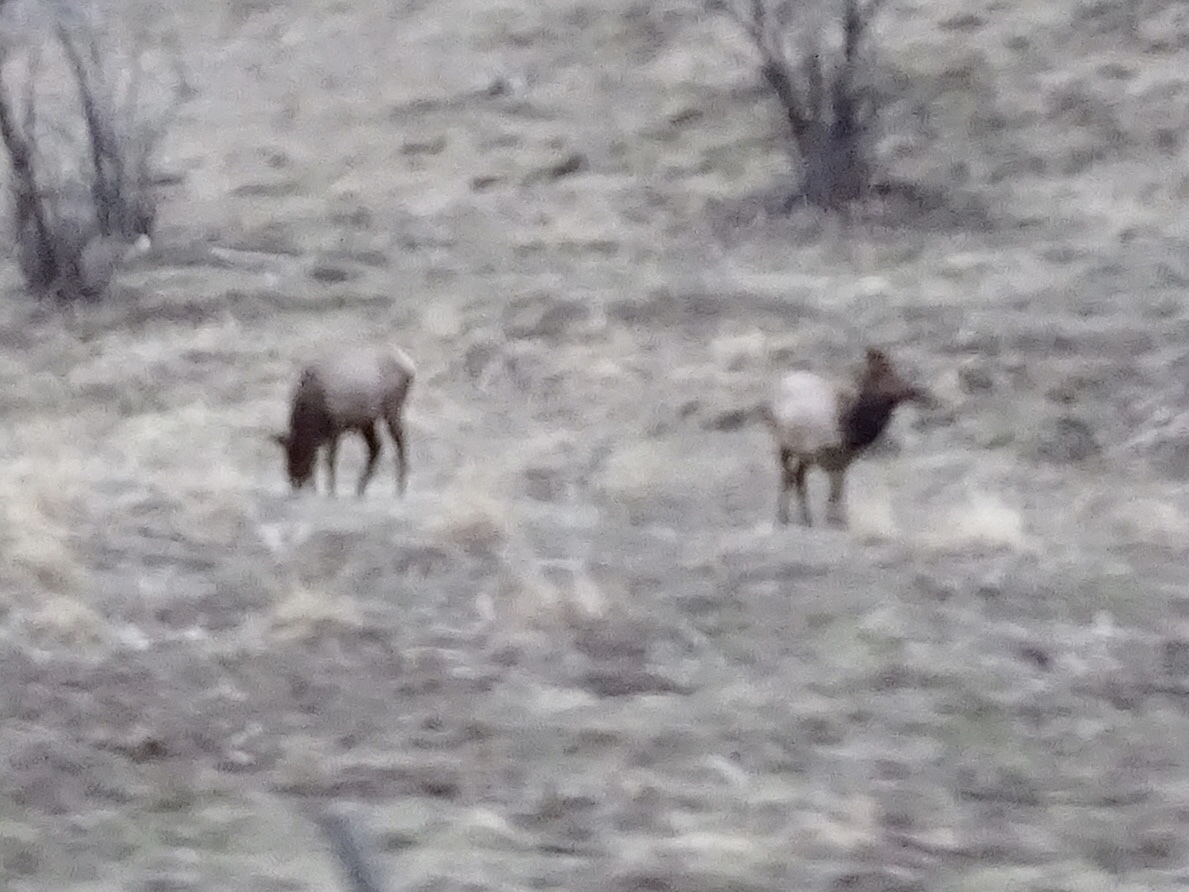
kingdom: Animalia
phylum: Chordata
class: Mammalia
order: Artiodactyla
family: Cervidae
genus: Cervus
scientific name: Cervus elaphus
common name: Red deer
